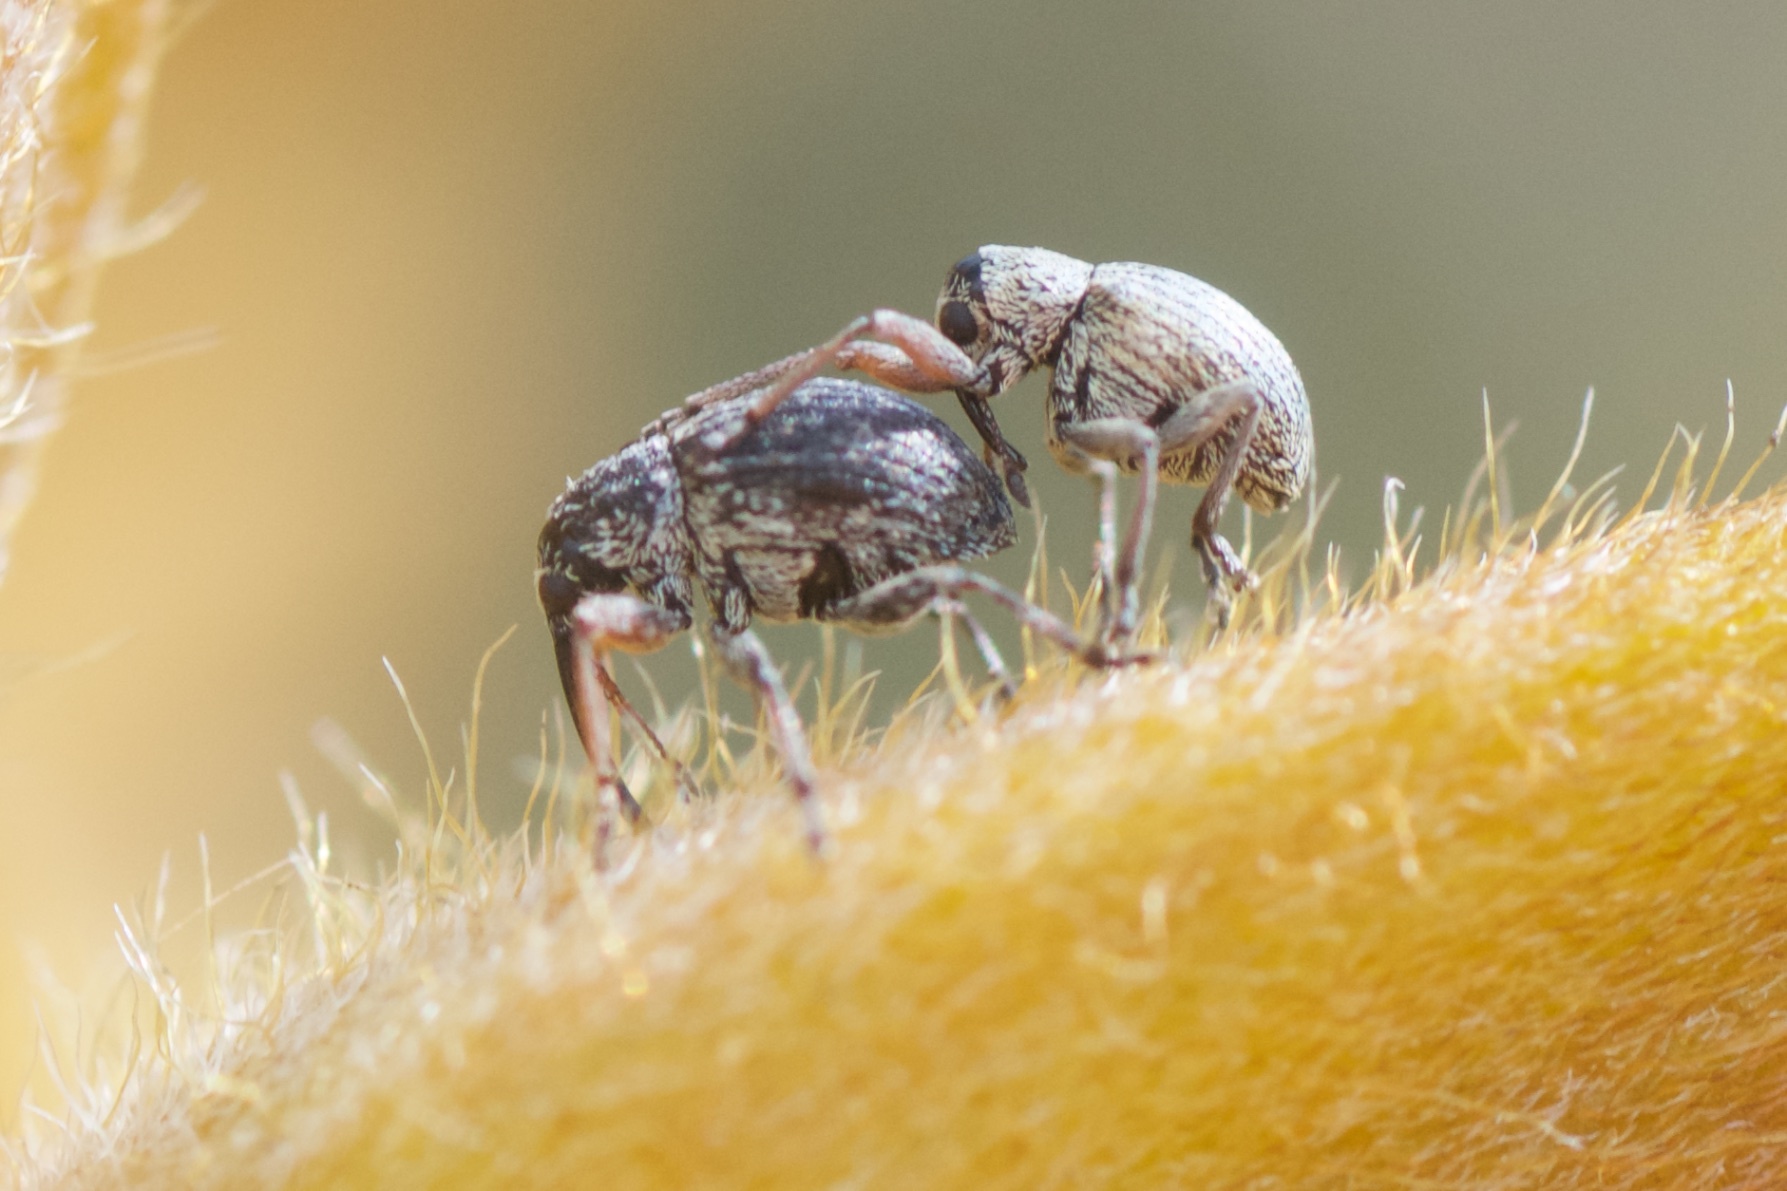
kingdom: Animalia
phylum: Arthropoda
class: Insecta
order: Coleoptera
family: Brentidae
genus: Exapion
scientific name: Exapion ulicis
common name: Gorse seed weevil
